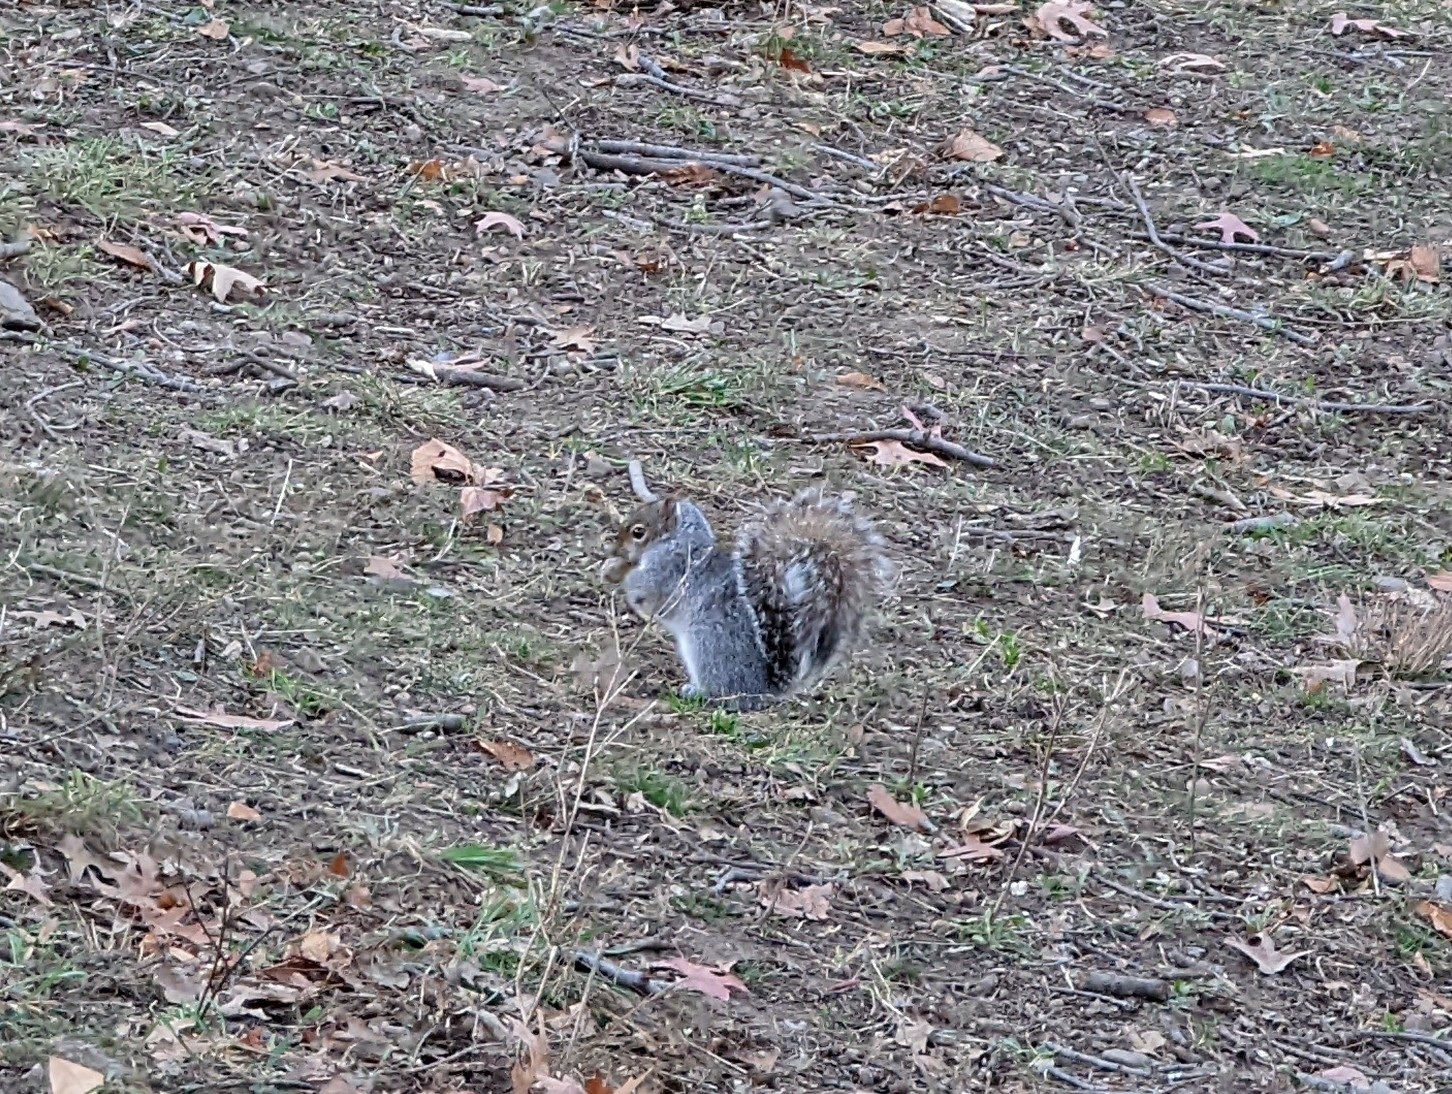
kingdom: Animalia
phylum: Chordata
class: Mammalia
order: Rodentia
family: Sciuridae
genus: Sciurus
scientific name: Sciurus carolinensis
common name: Eastern gray squirrel
